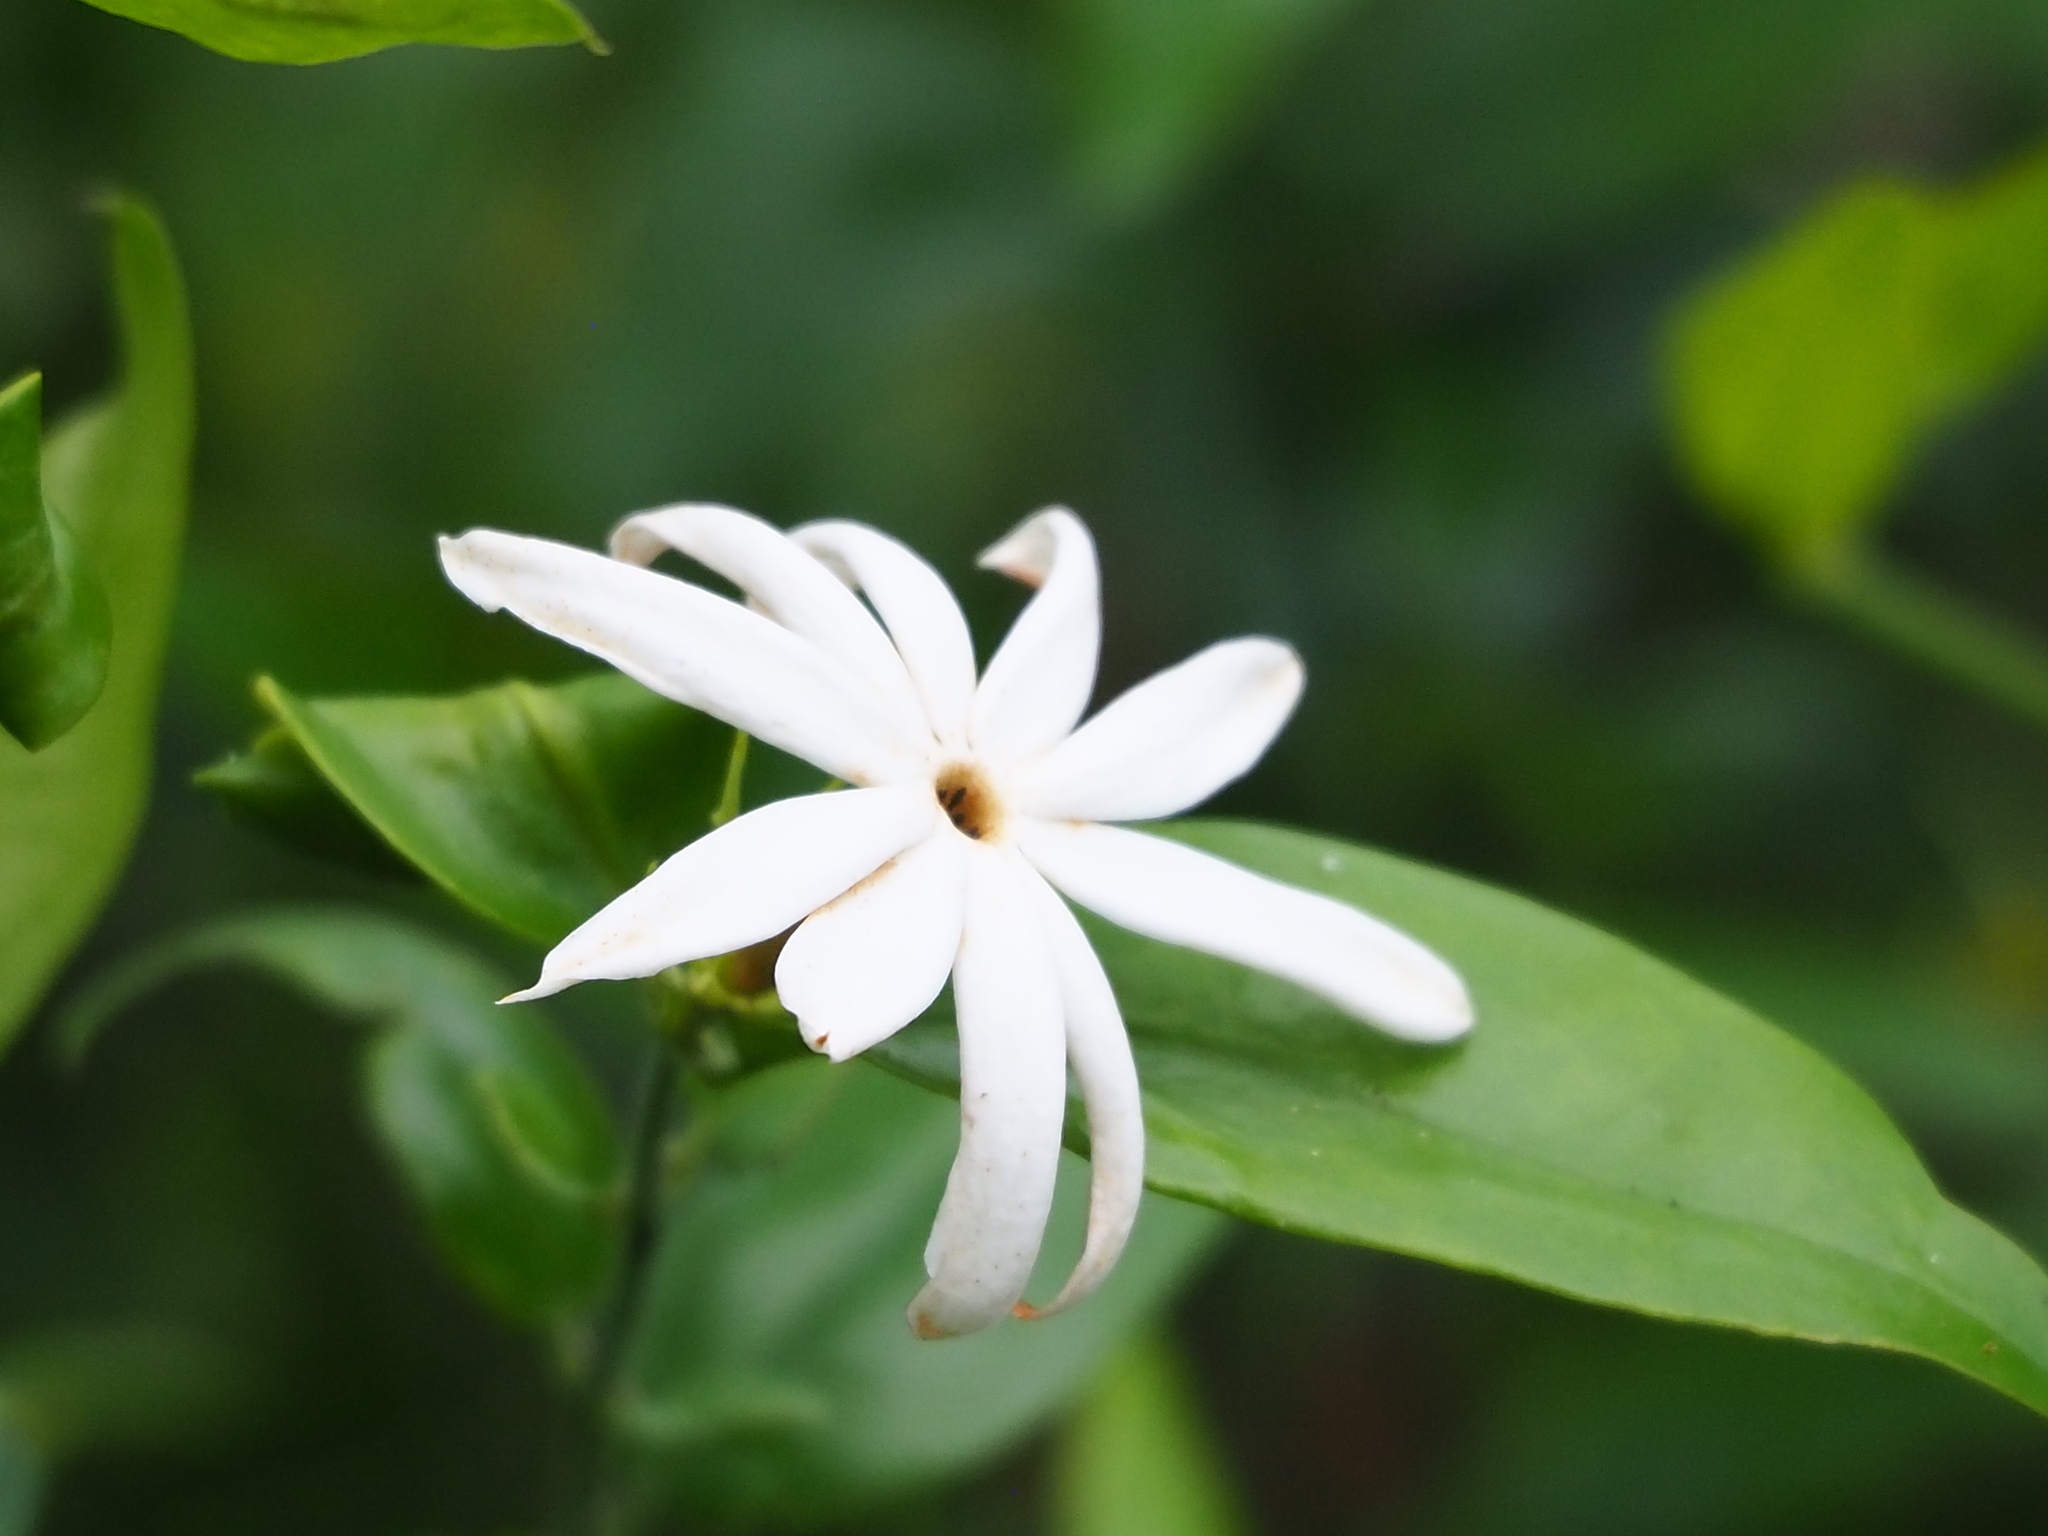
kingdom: Plantae
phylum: Tracheophyta
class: Magnoliopsida
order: Lamiales
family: Oleaceae
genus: Jasminum
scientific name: Jasminum nervosum
